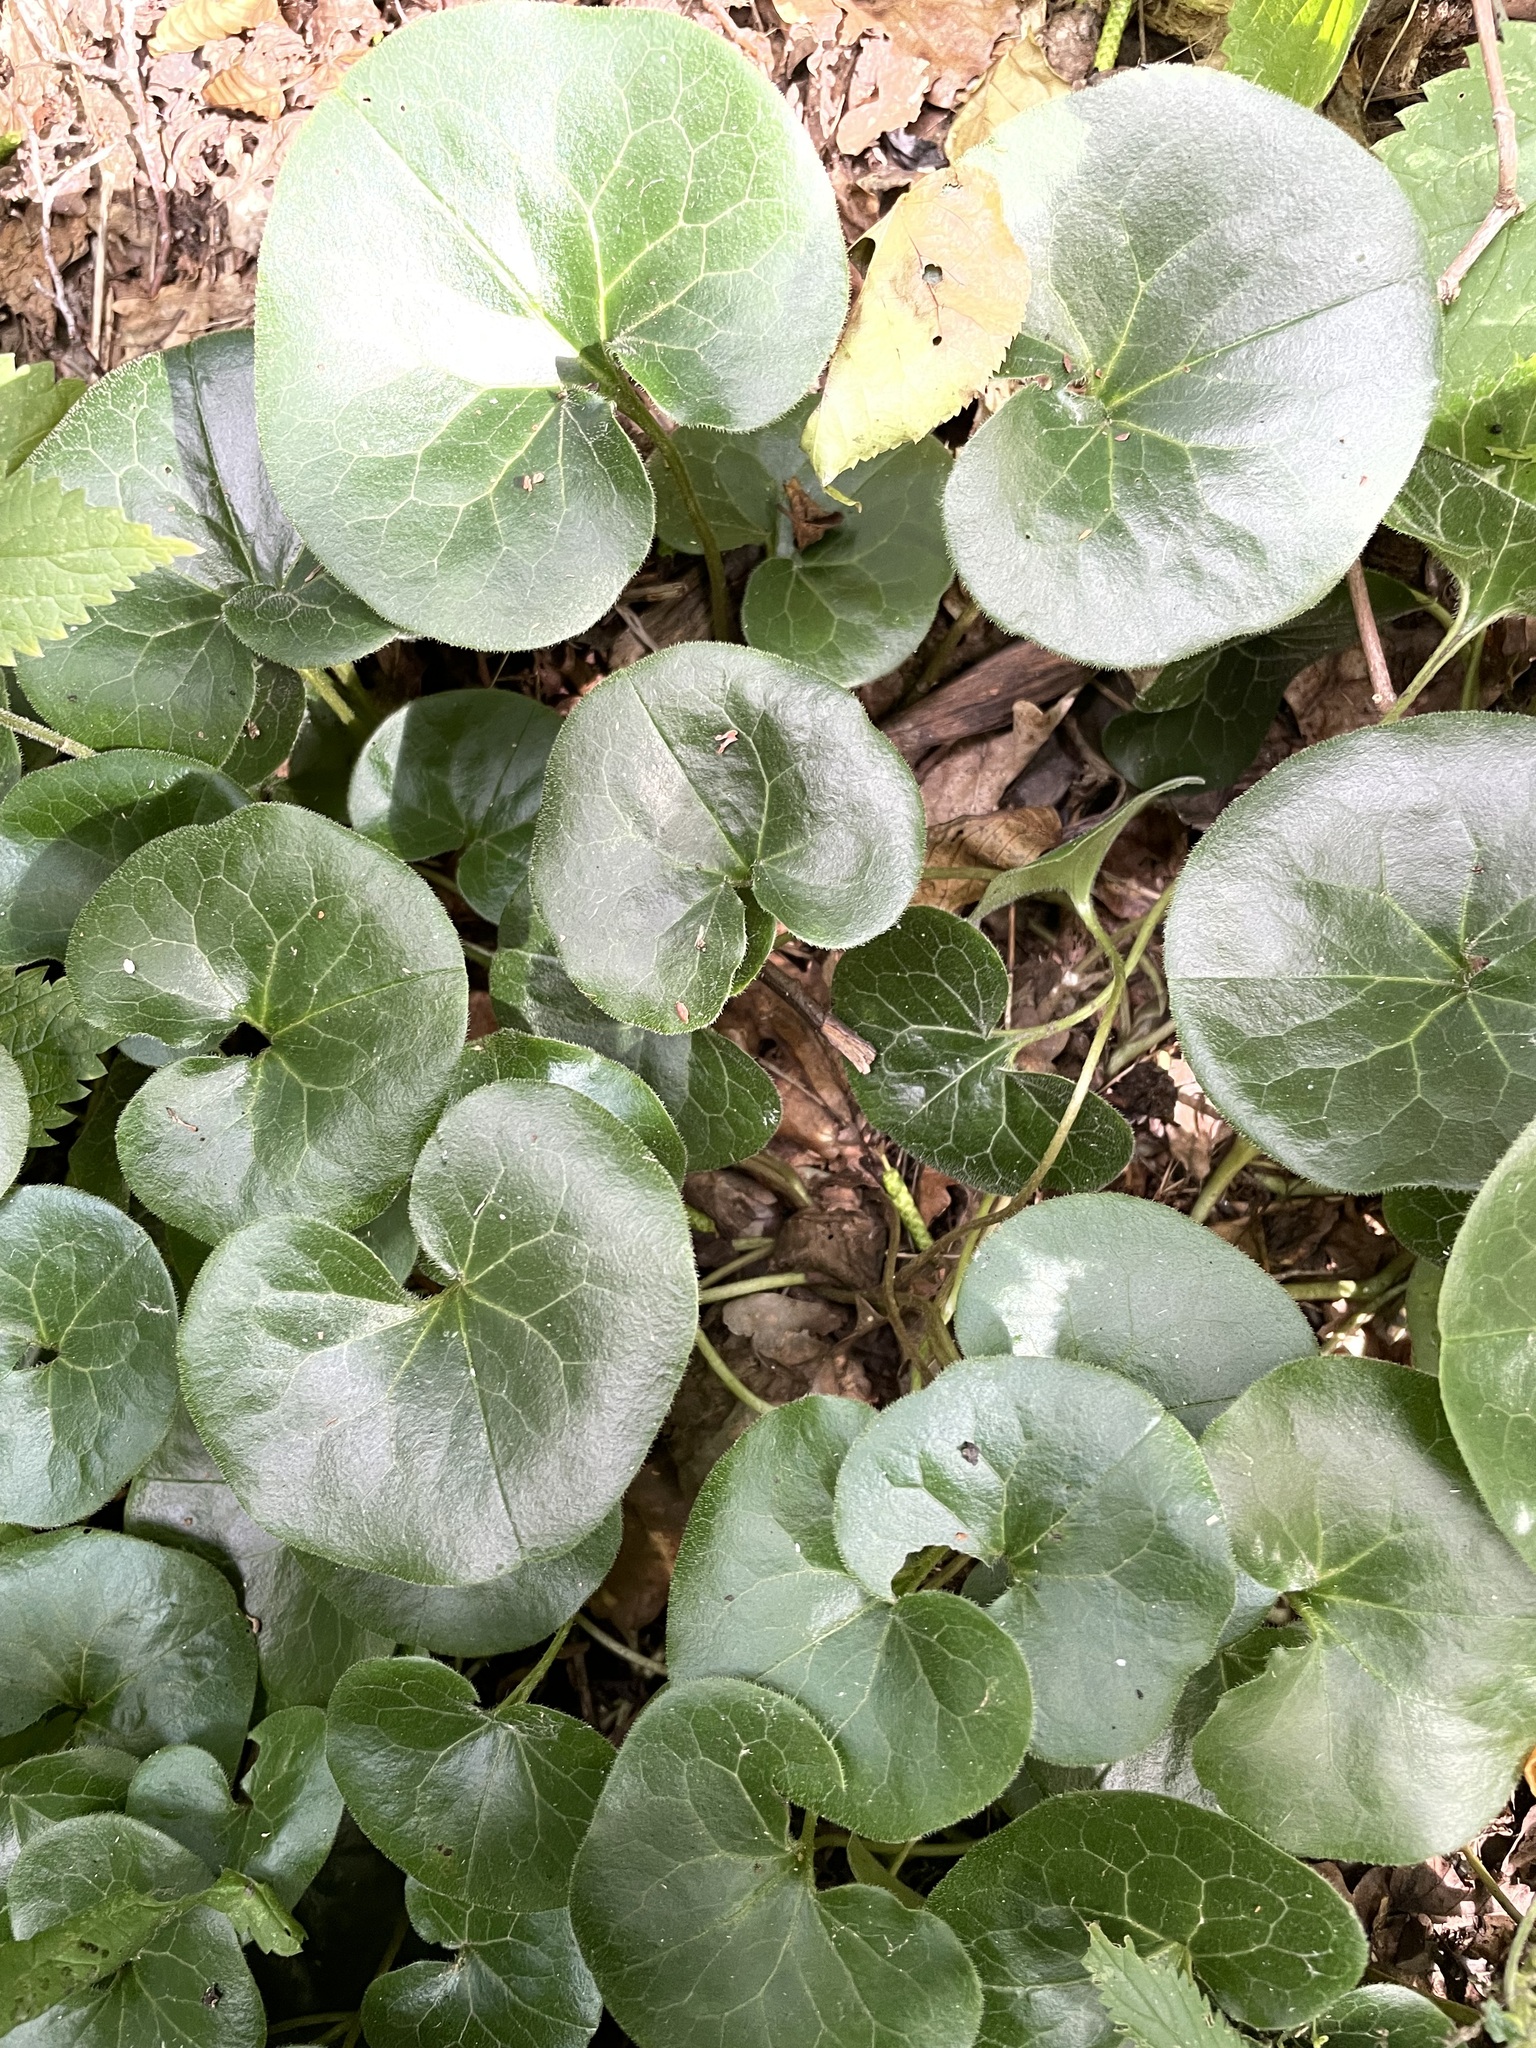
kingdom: Plantae
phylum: Tracheophyta
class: Magnoliopsida
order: Piperales
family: Aristolochiaceae
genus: Asarum
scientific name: Asarum europaeum
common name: Asarabacca
